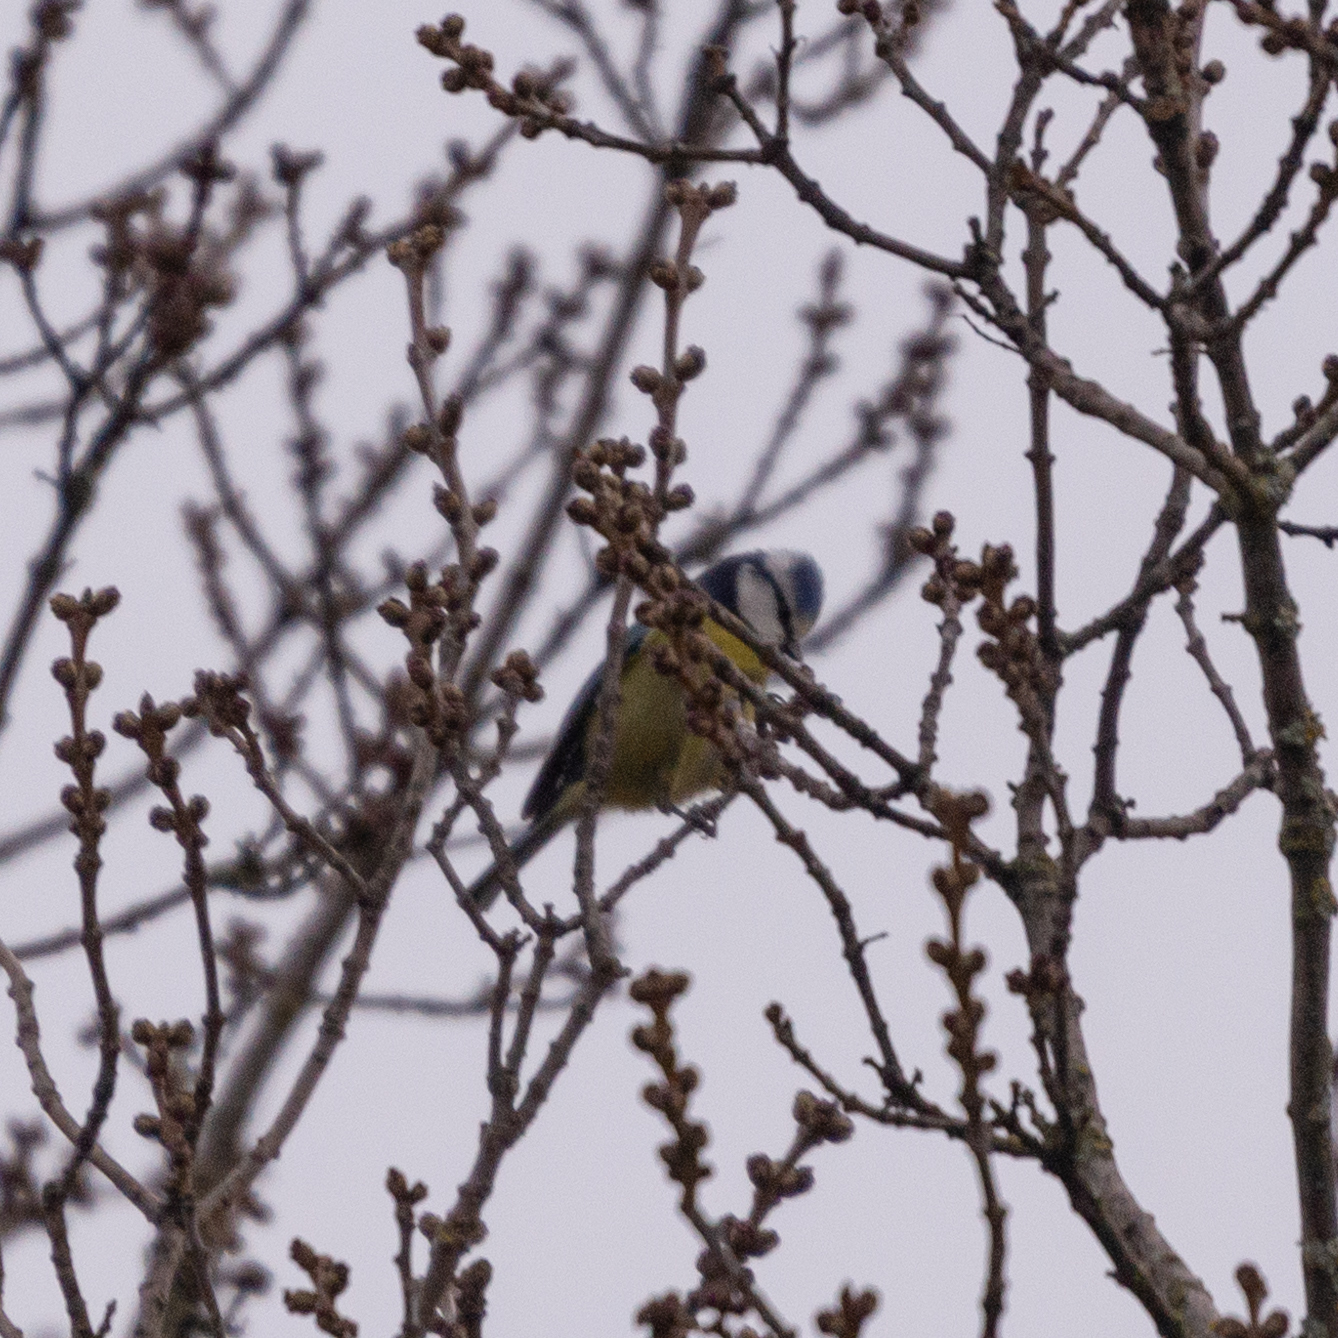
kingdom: Animalia
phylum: Chordata
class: Aves
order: Passeriformes
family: Paridae
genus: Cyanistes
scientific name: Cyanistes caeruleus
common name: Eurasian blue tit
